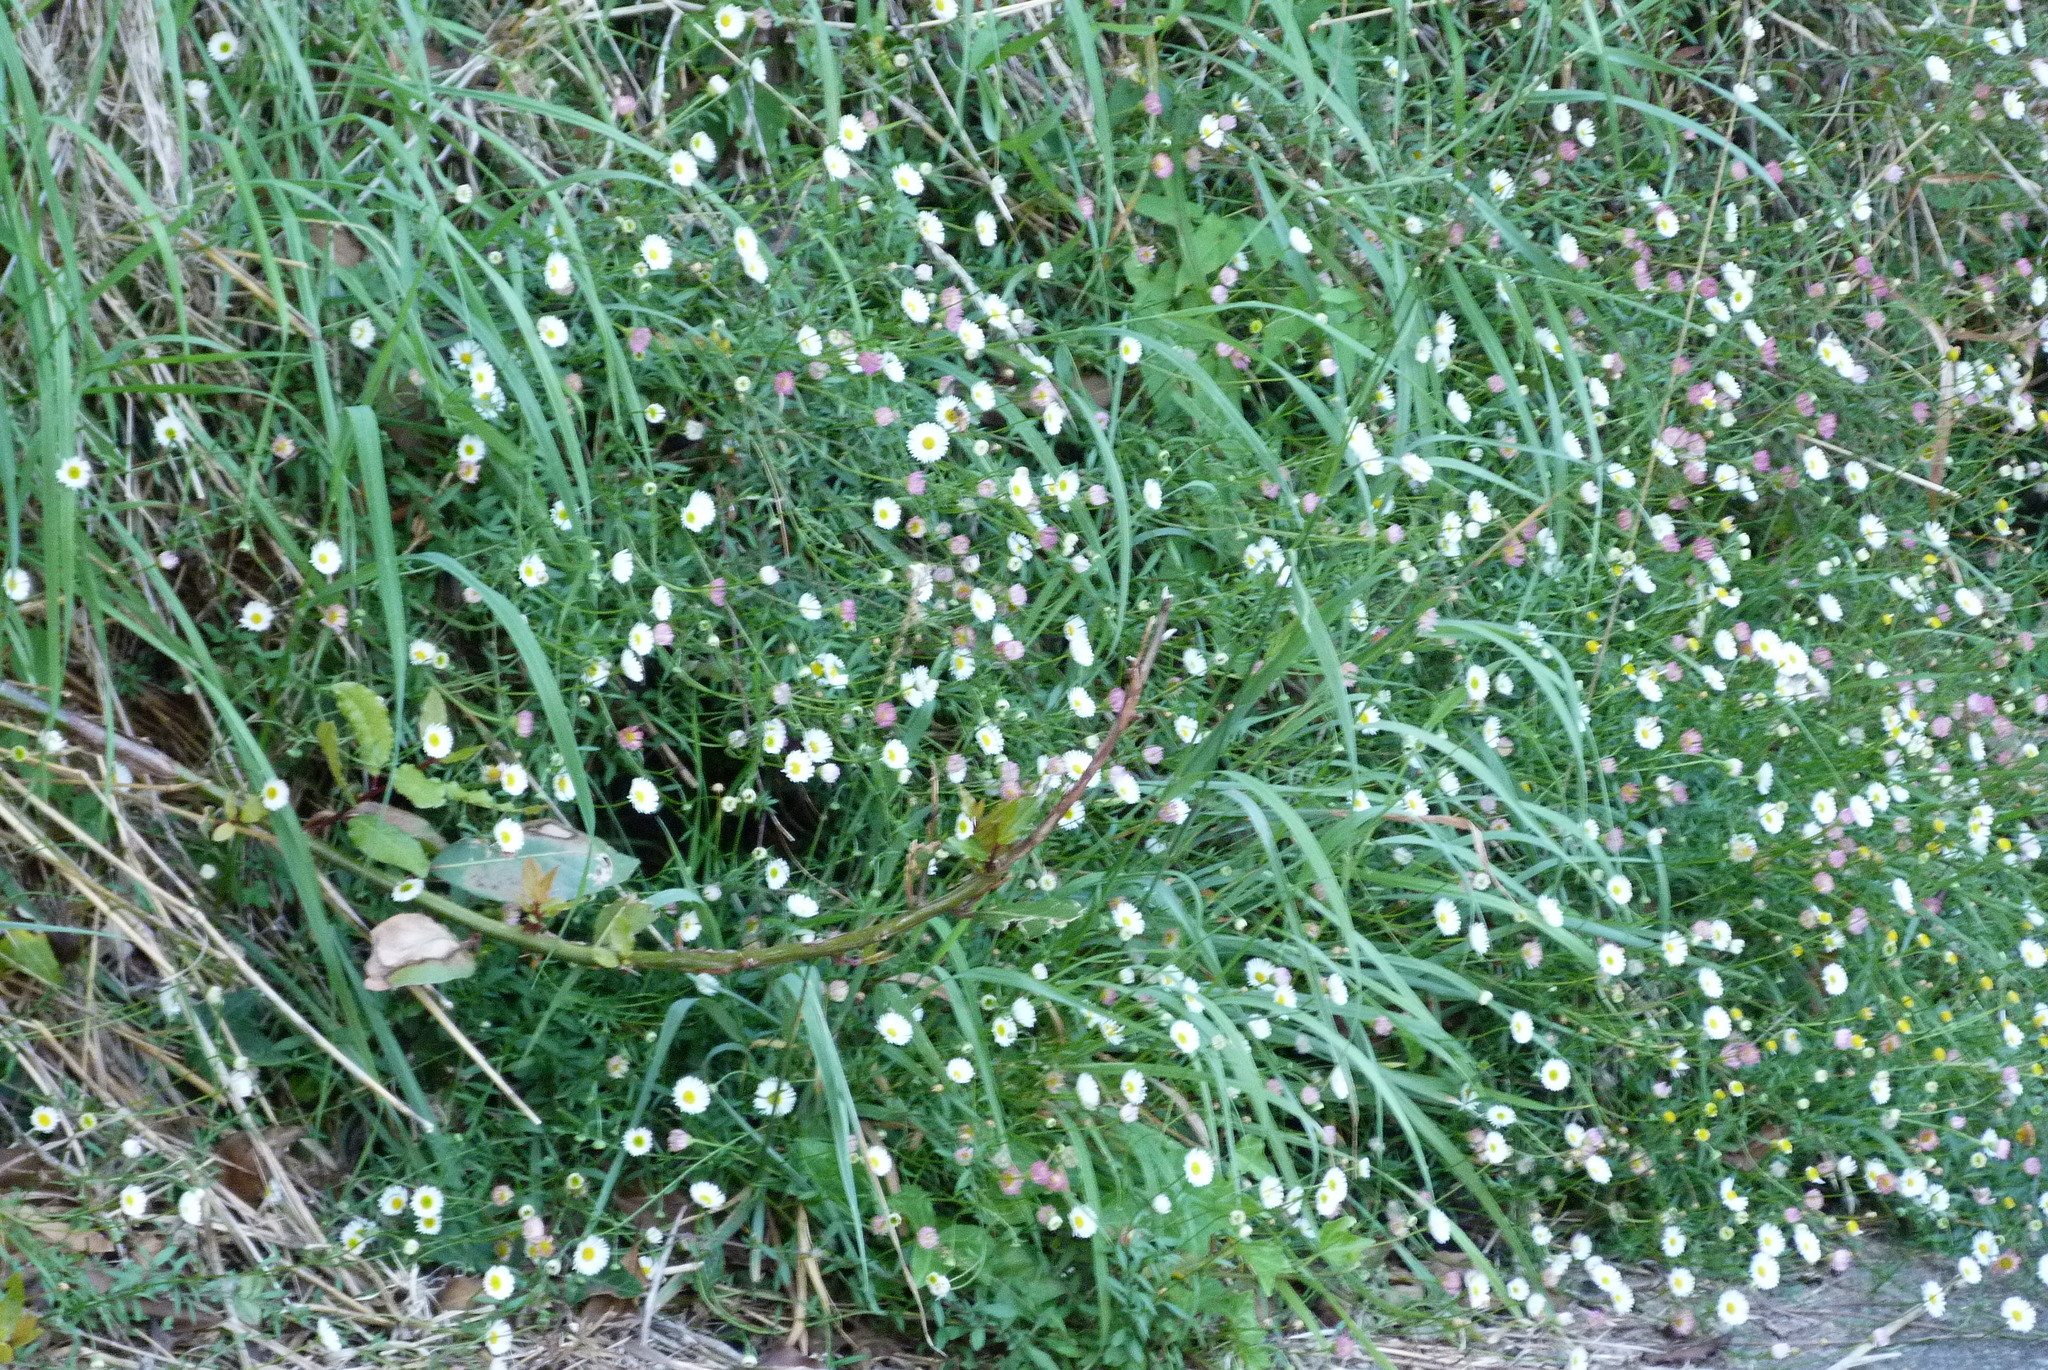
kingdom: Plantae
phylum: Tracheophyta
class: Magnoliopsida
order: Asterales
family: Asteraceae
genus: Erigeron
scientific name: Erigeron karvinskianus
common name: Mexican fleabane
